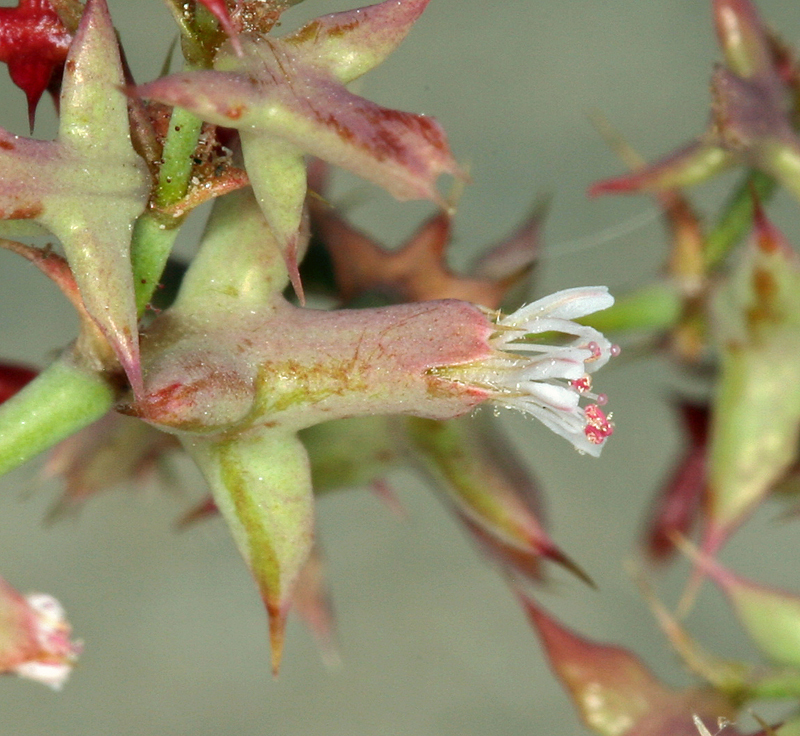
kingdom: Plantae
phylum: Tracheophyta
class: Magnoliopsida
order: Caryophyllales
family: Polygonaceae
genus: Centrostegia
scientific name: Centrostegia thurberi
